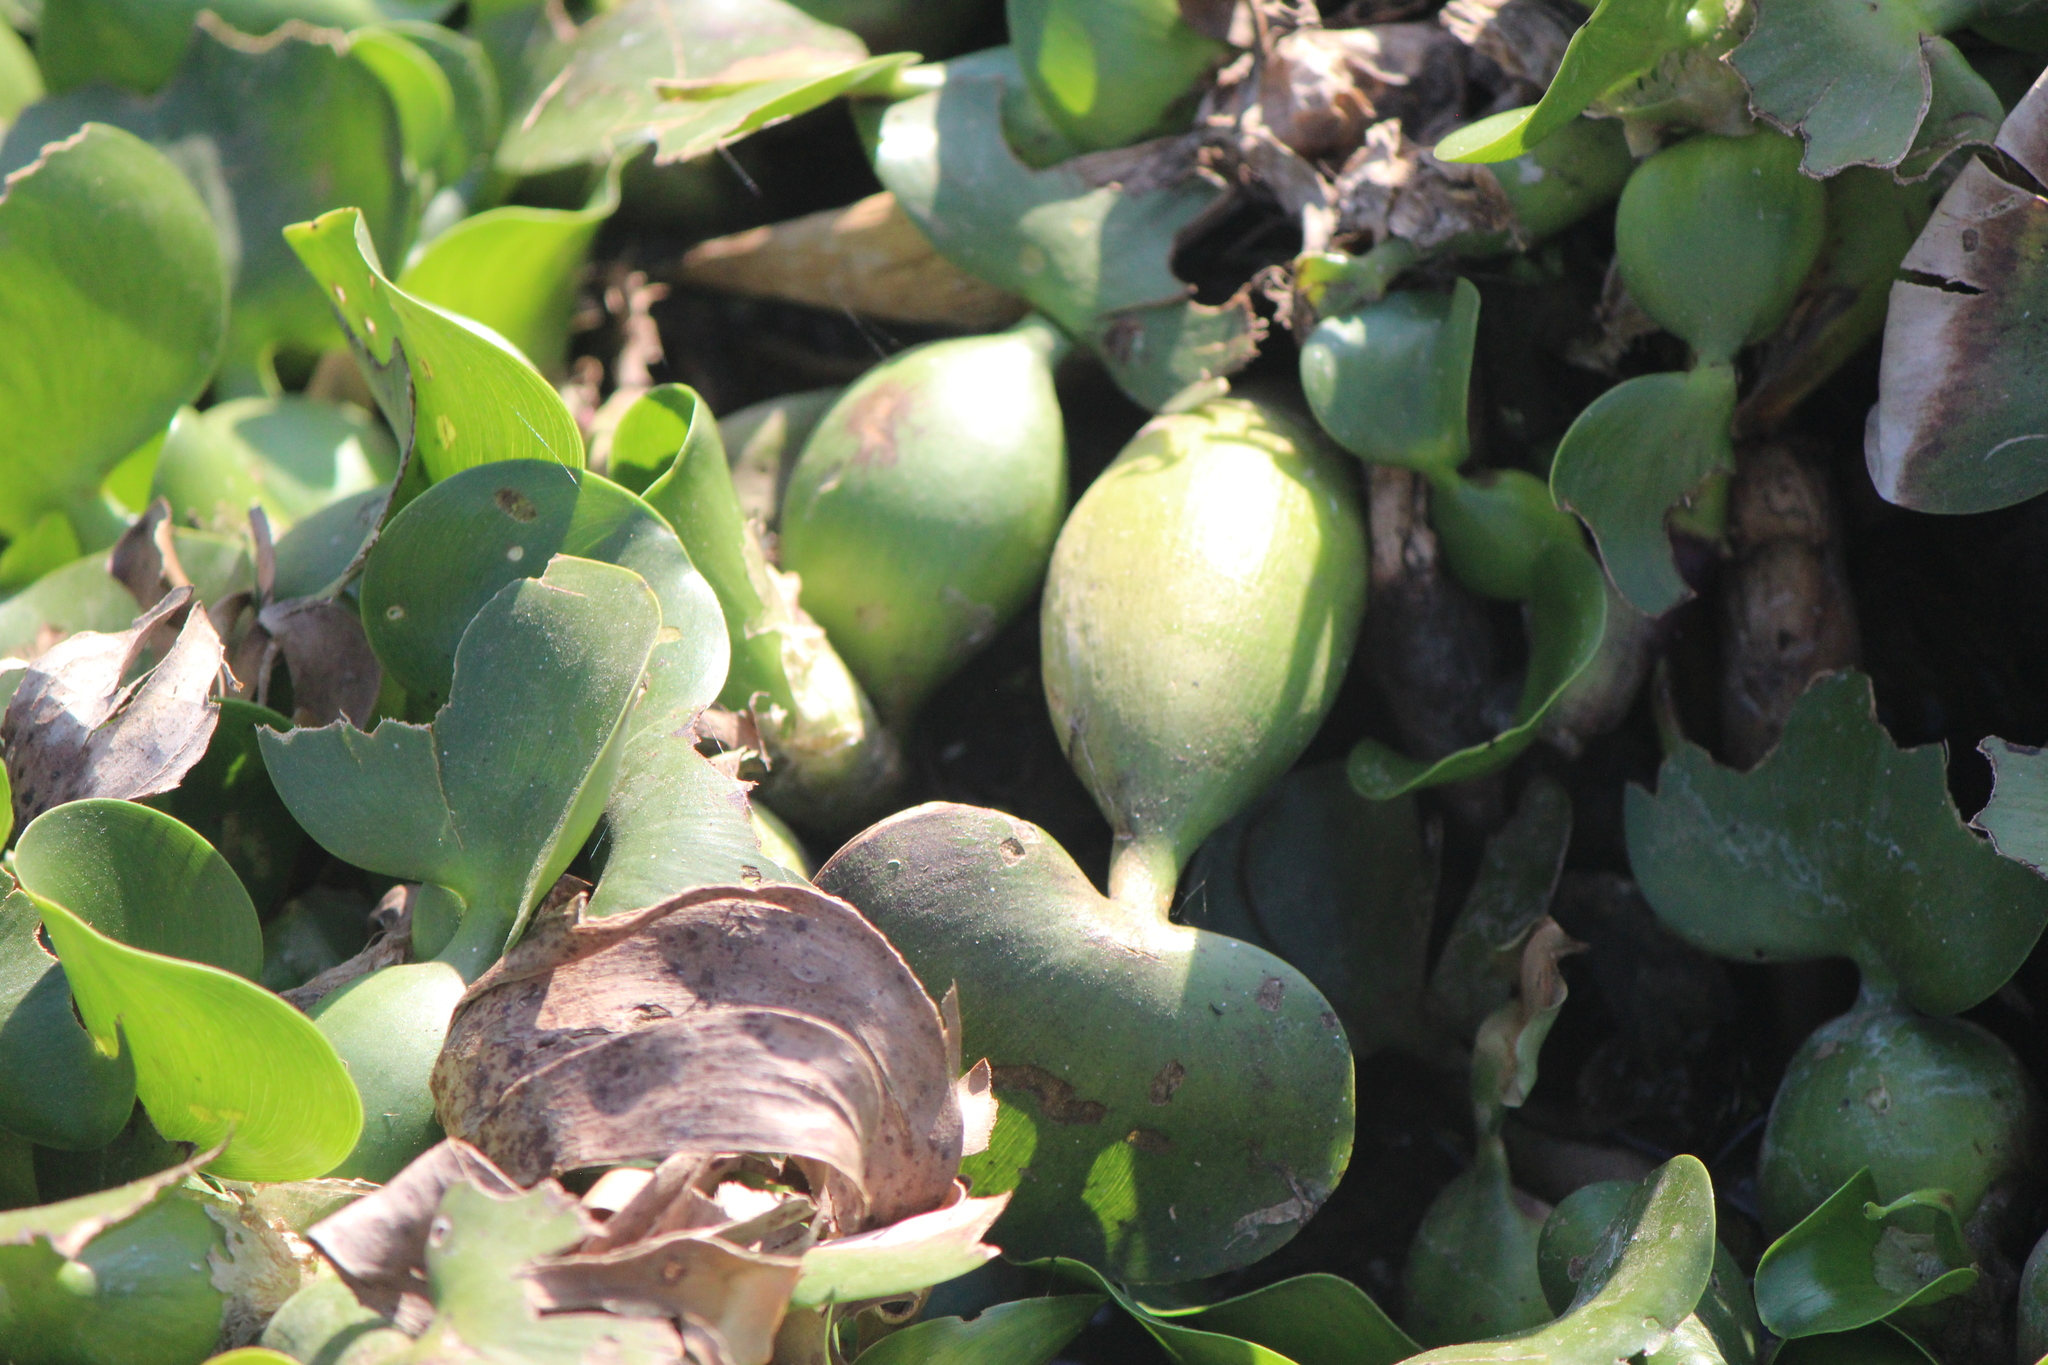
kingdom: Plantae
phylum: Tracheophyta
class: Liliopsida
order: Commelinales
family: Pontederiaceae
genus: Pontederia
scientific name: Pontederia crassipes
